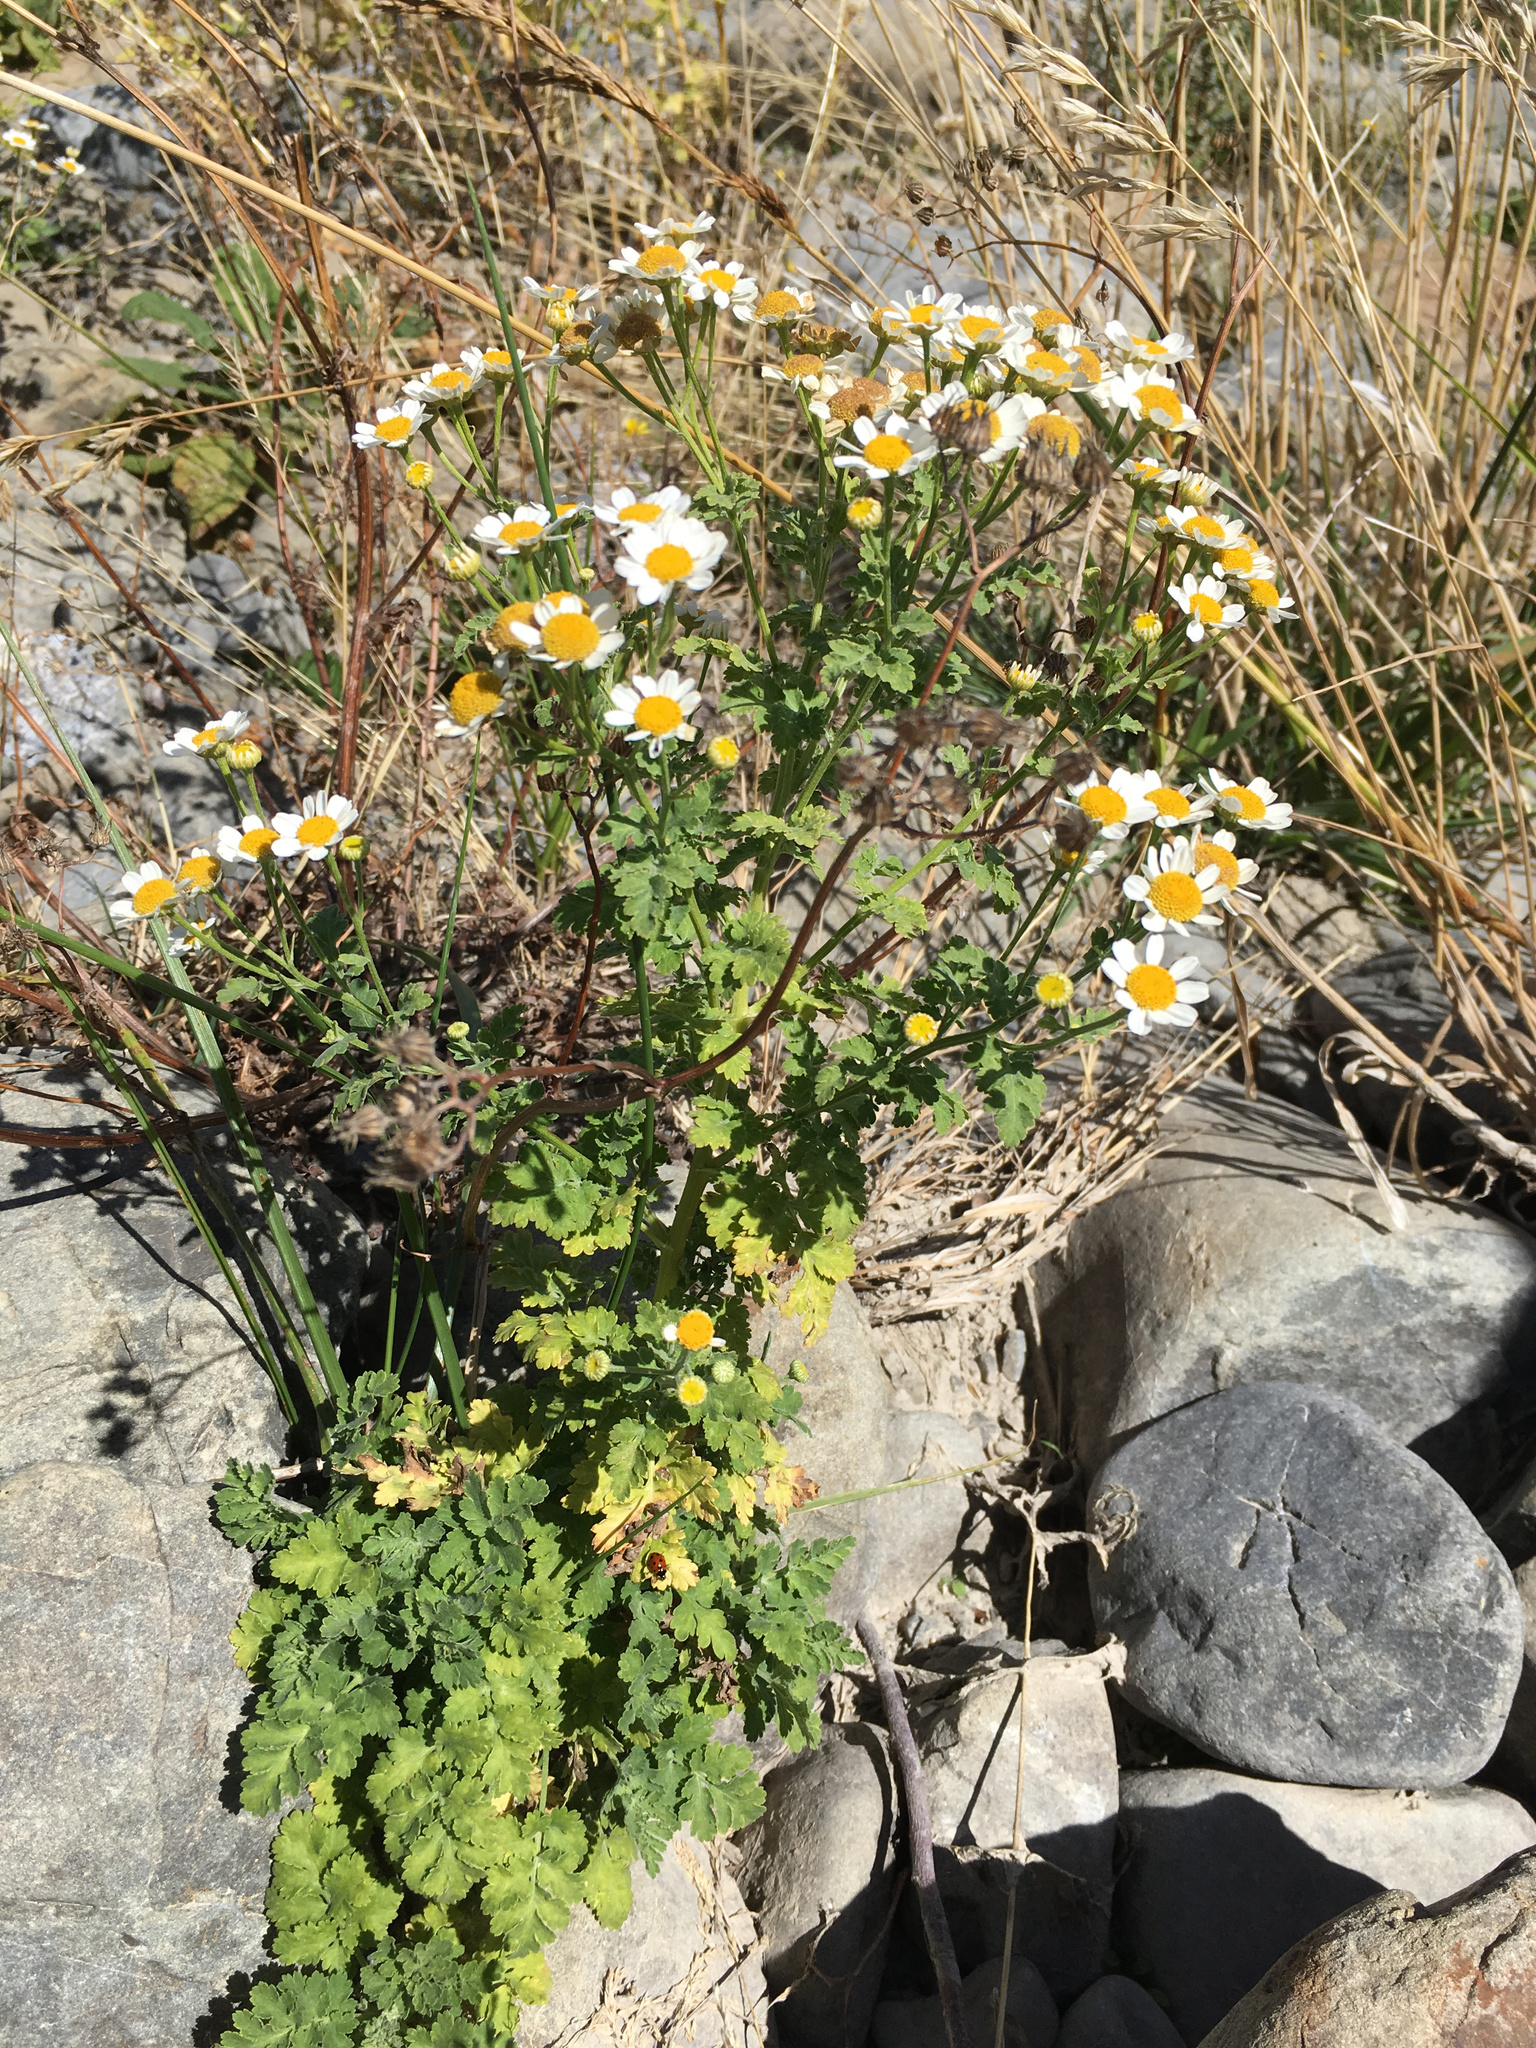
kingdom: Plantae
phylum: Tracheophyta
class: Magnoliopsida
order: Asterales
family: Asteraceae
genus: Tanacetum
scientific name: Tanacetum parthenium
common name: Feverfew
